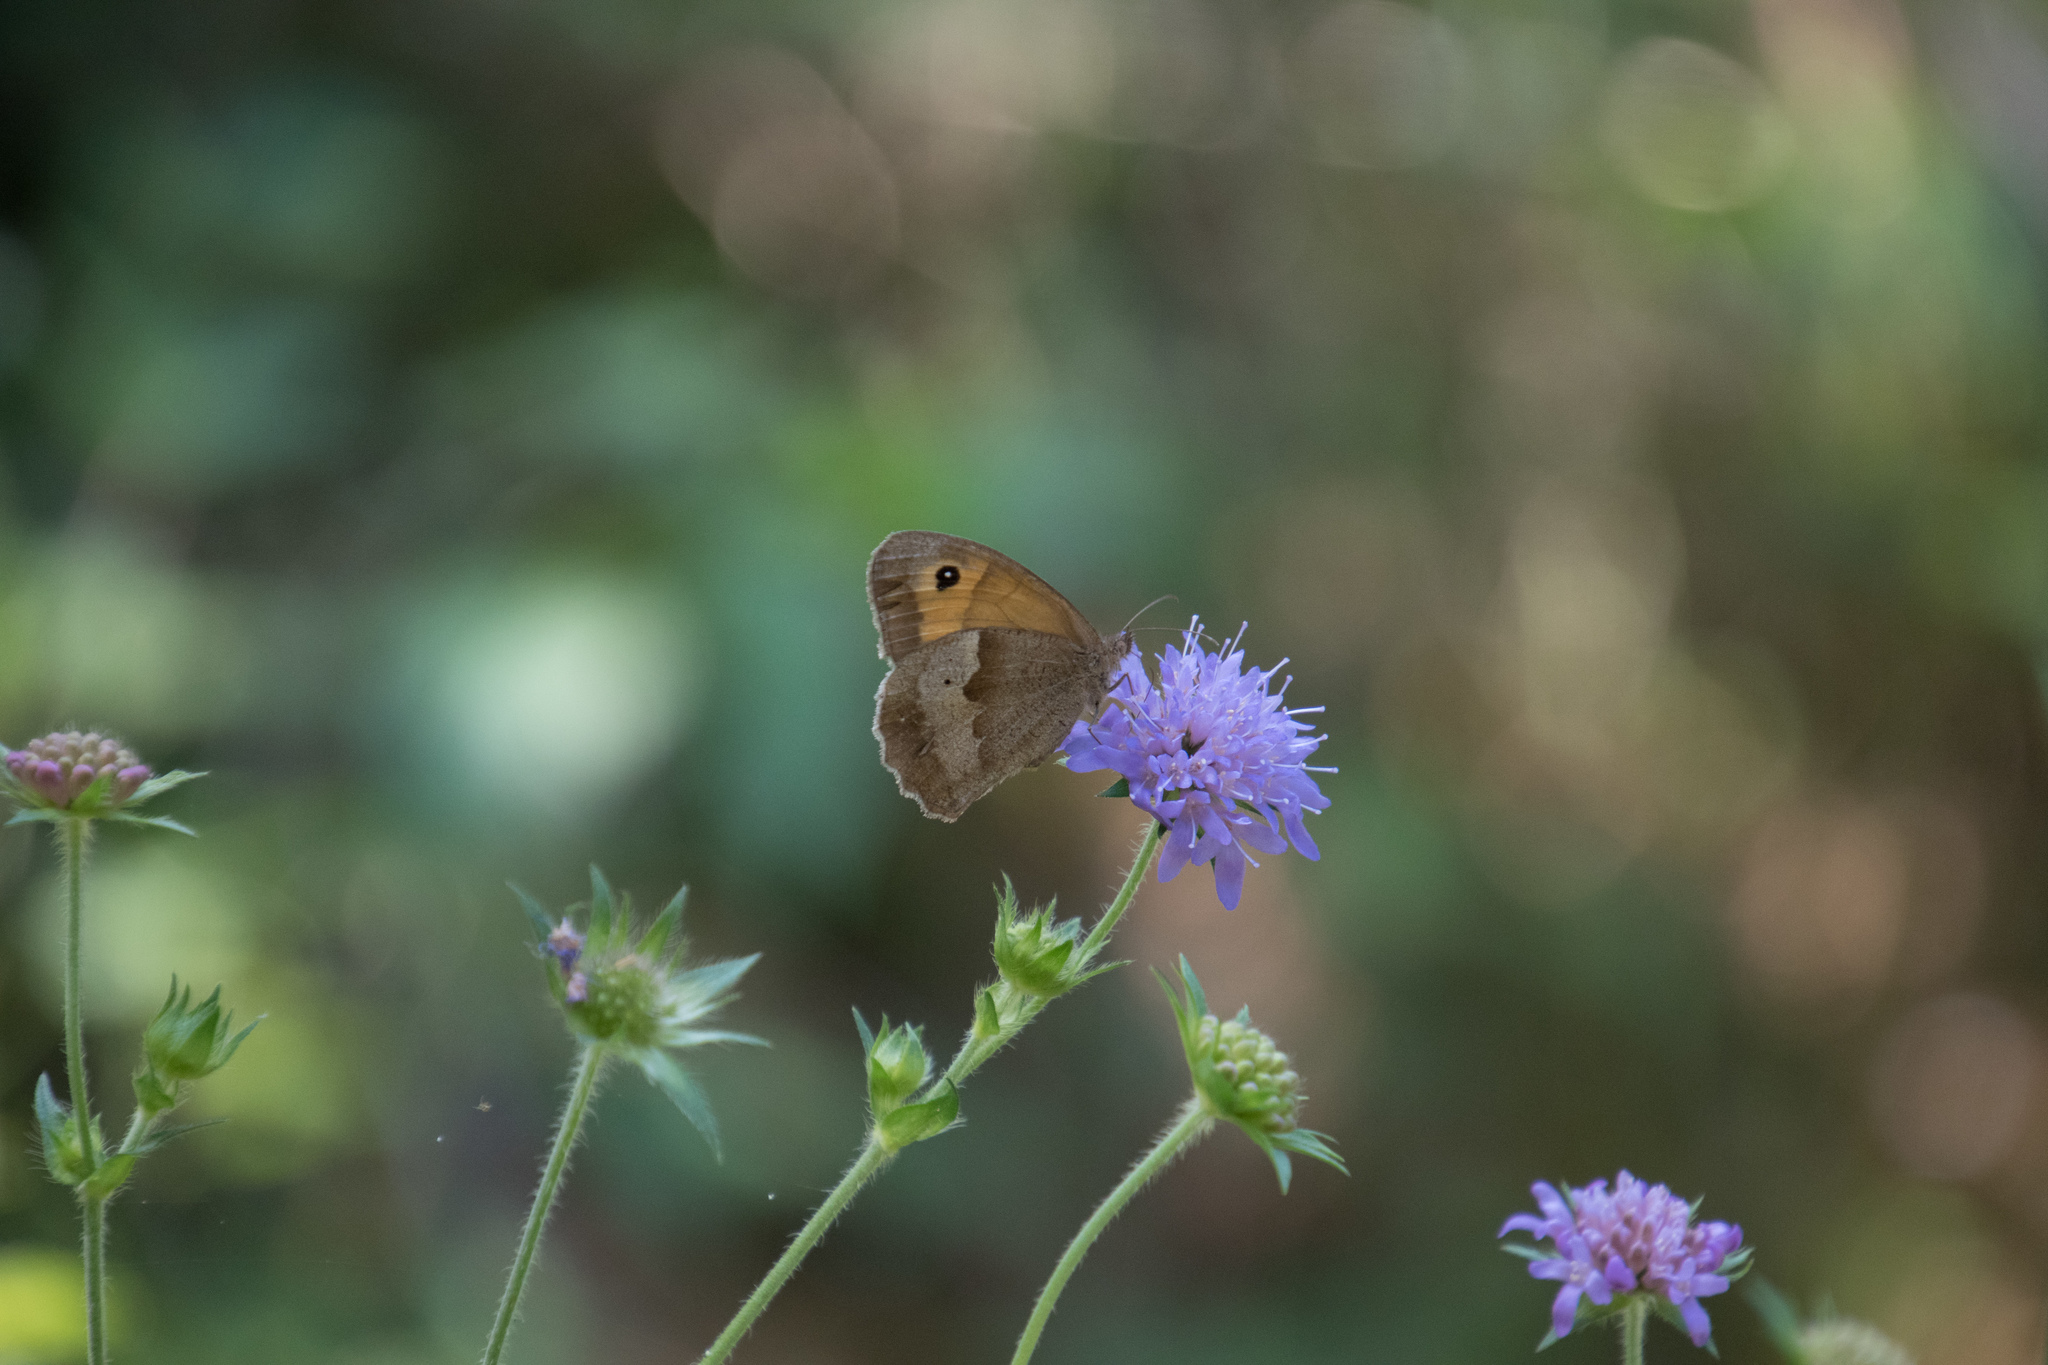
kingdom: Animalia
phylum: Arthropoda
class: Insecta
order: Lepidoptera
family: Nymphalidae
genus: Maniola
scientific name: Maniola jurtina
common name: Meadow brown
